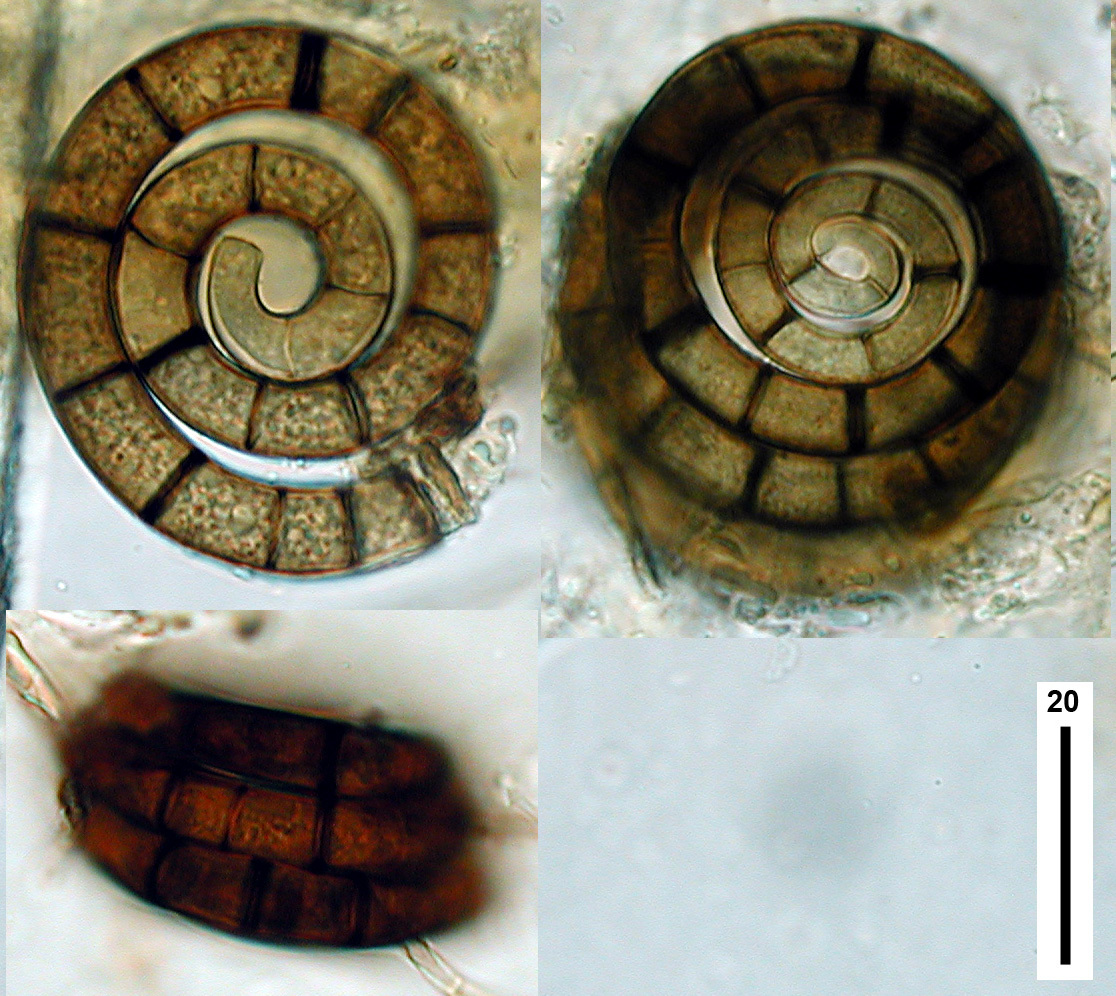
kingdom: Fungi
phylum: Ascomycota
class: Orbiliomycetes
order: Orbiliales
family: Orbiliaceae
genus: Helicoon
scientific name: Helicoon
